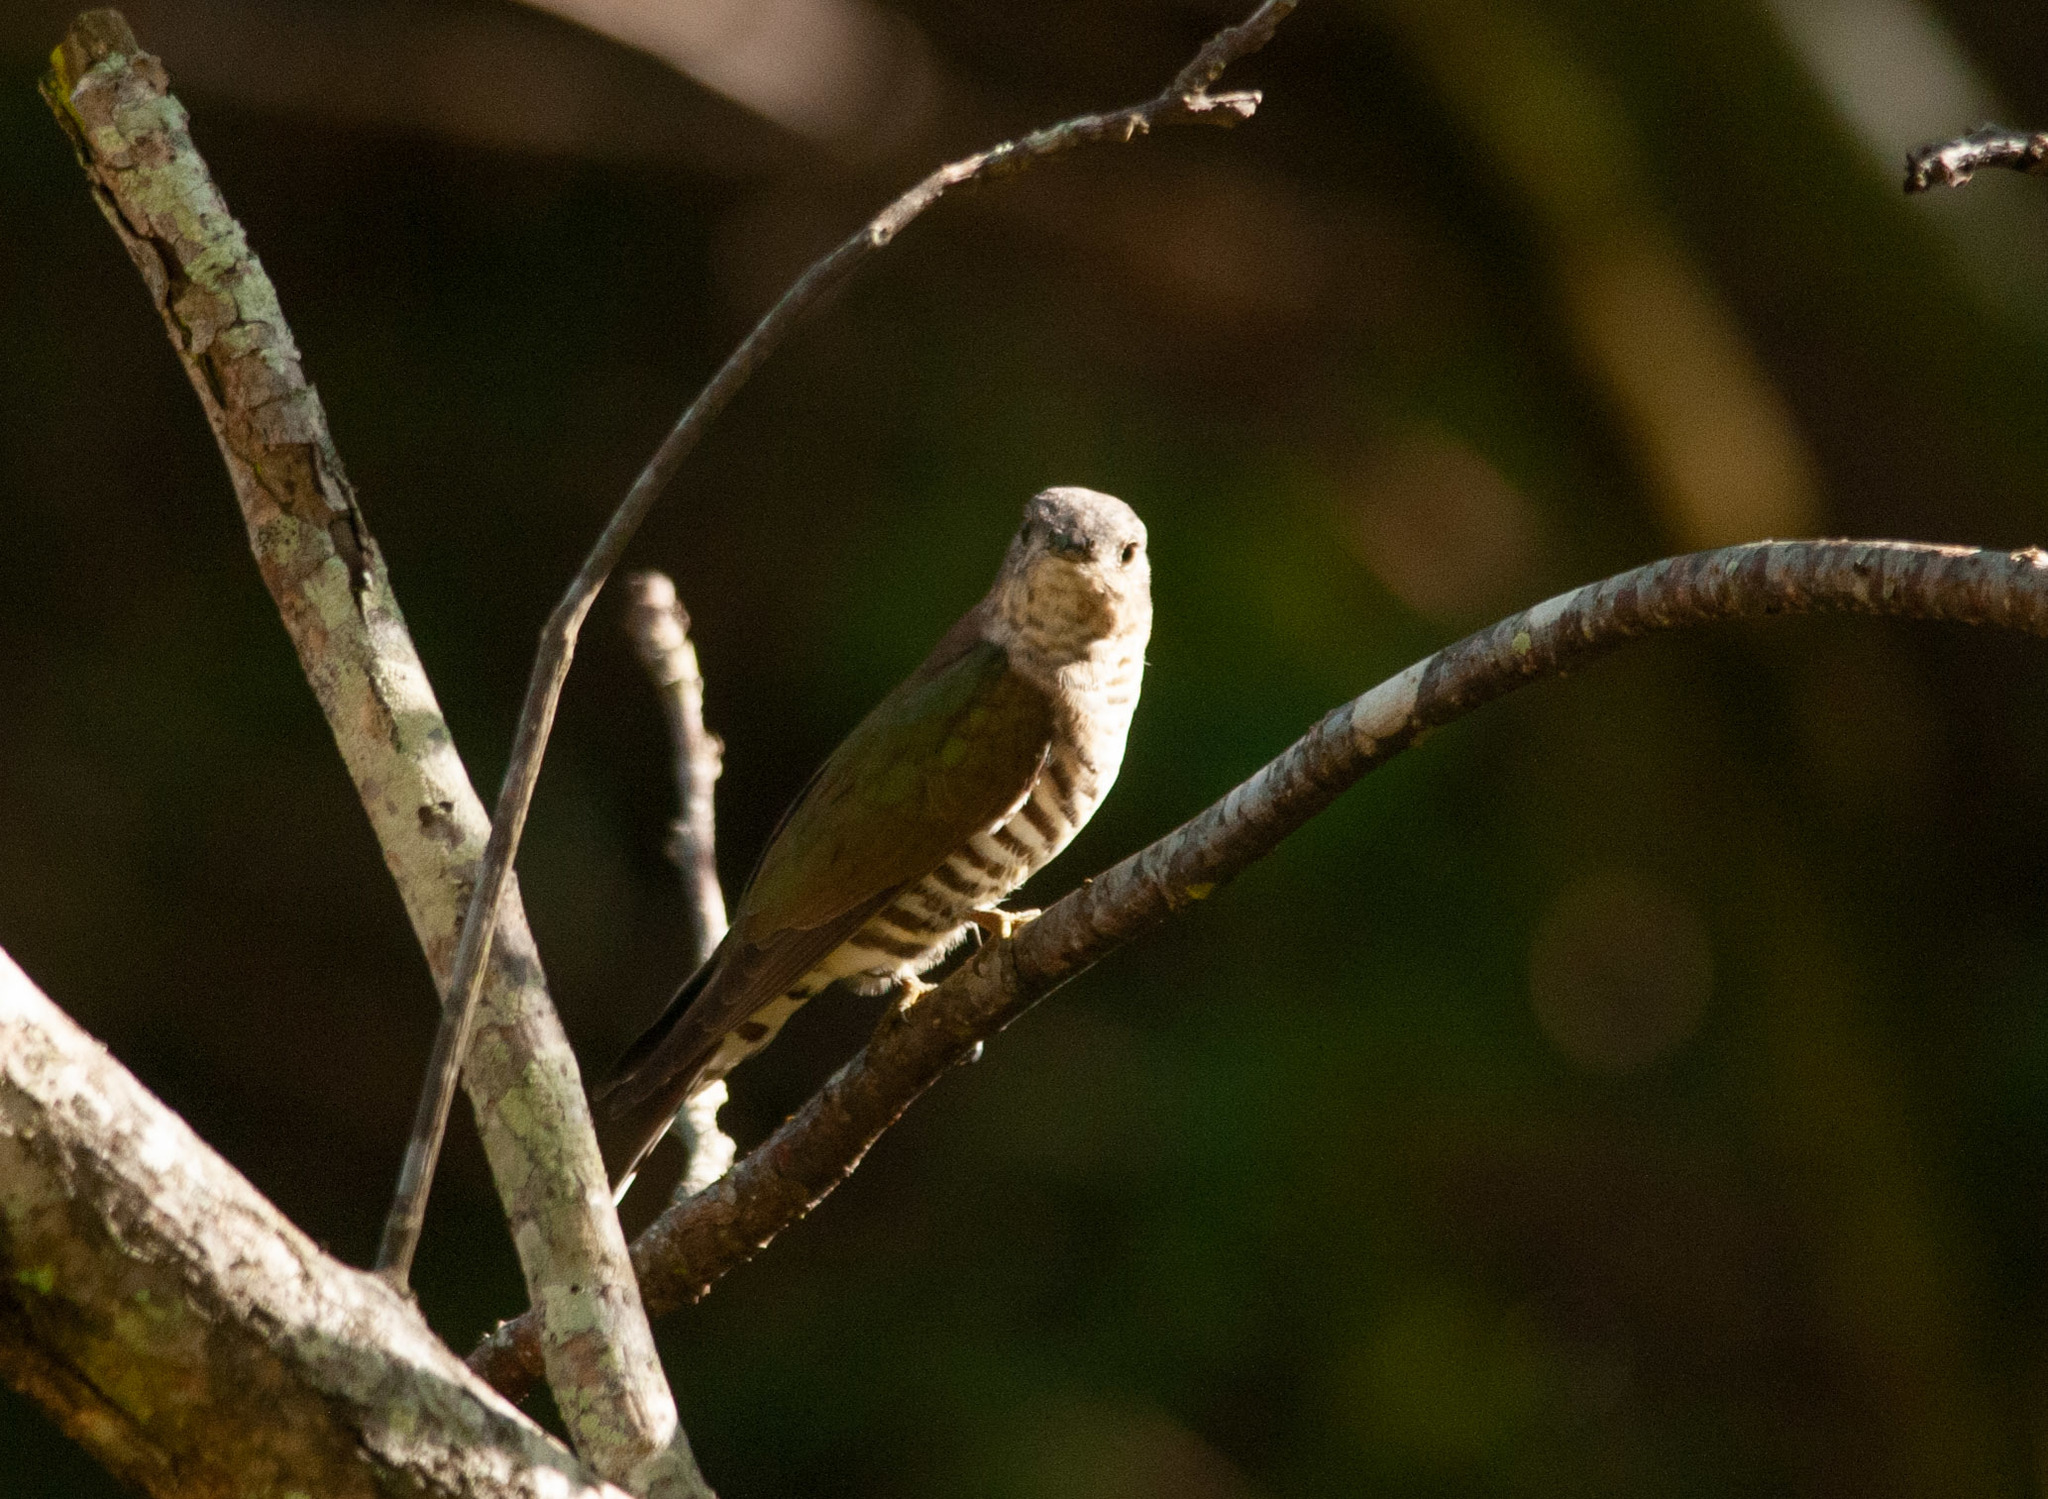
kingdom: Animalia
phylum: Chordata
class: Aves
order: Cuculiformes
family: Cuculidae
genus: Chrysococcyx
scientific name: Chrysococcyx lucidus
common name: Shining bronze cuckoo
